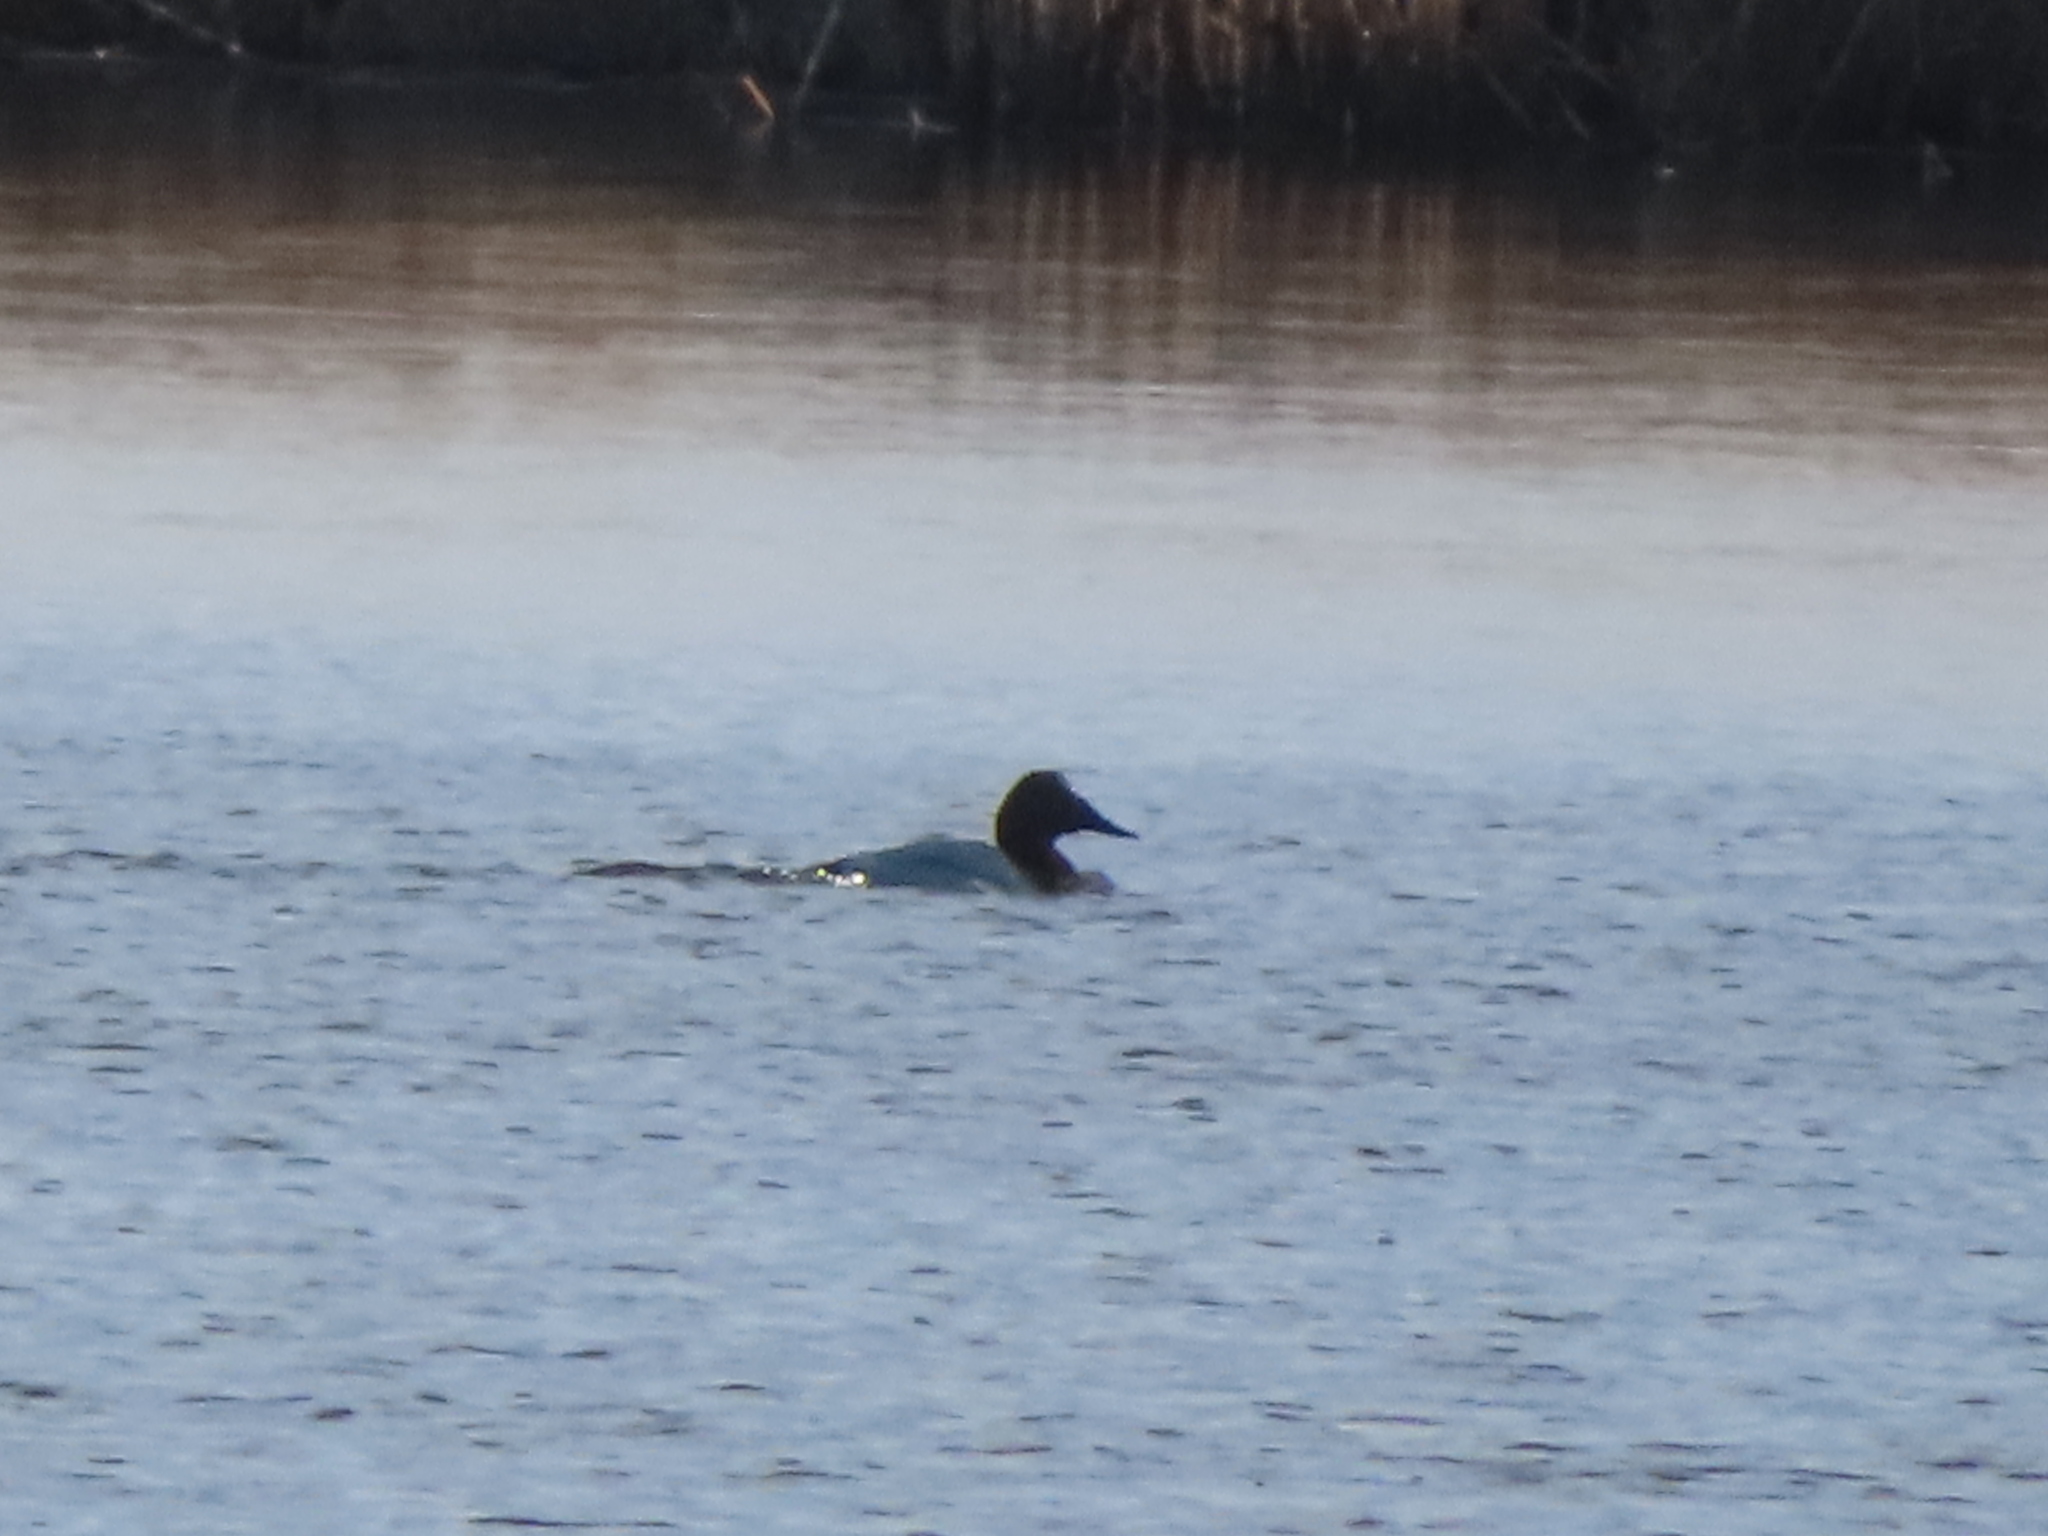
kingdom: Animalia
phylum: Chordata
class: Aves
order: Anseriformes
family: Anatidae
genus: Aythya
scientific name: Aythya valisineria
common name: Canvasback
